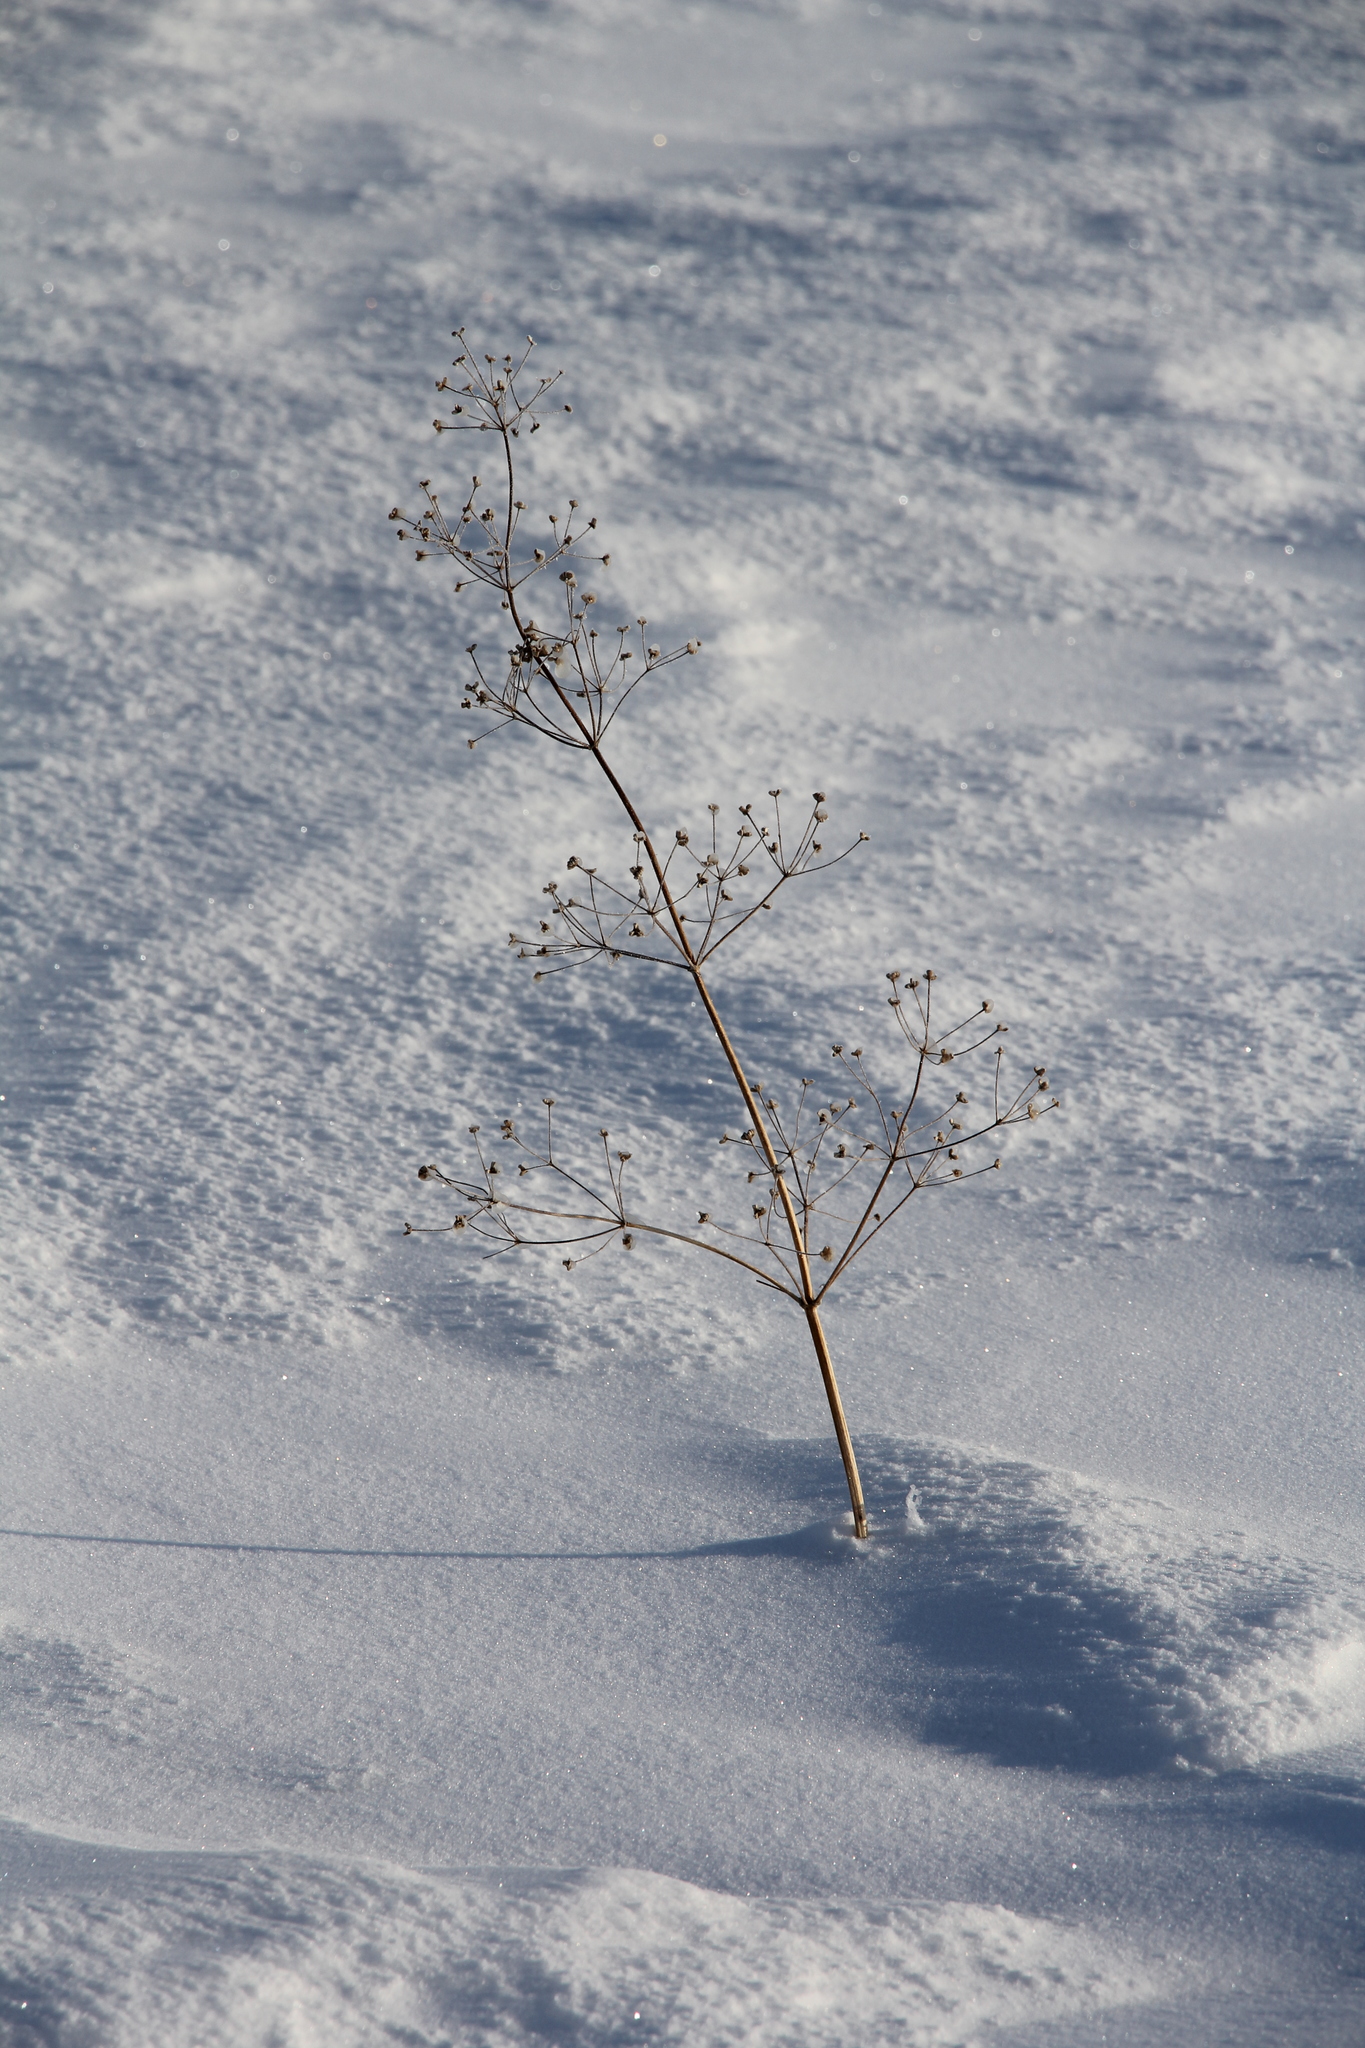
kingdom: Plantae
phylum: Tracheophyta
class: Liliopsida
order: Alismatales
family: Alismataceae
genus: Alisma
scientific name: Alisma plantago-aquatica
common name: Water-plantain
